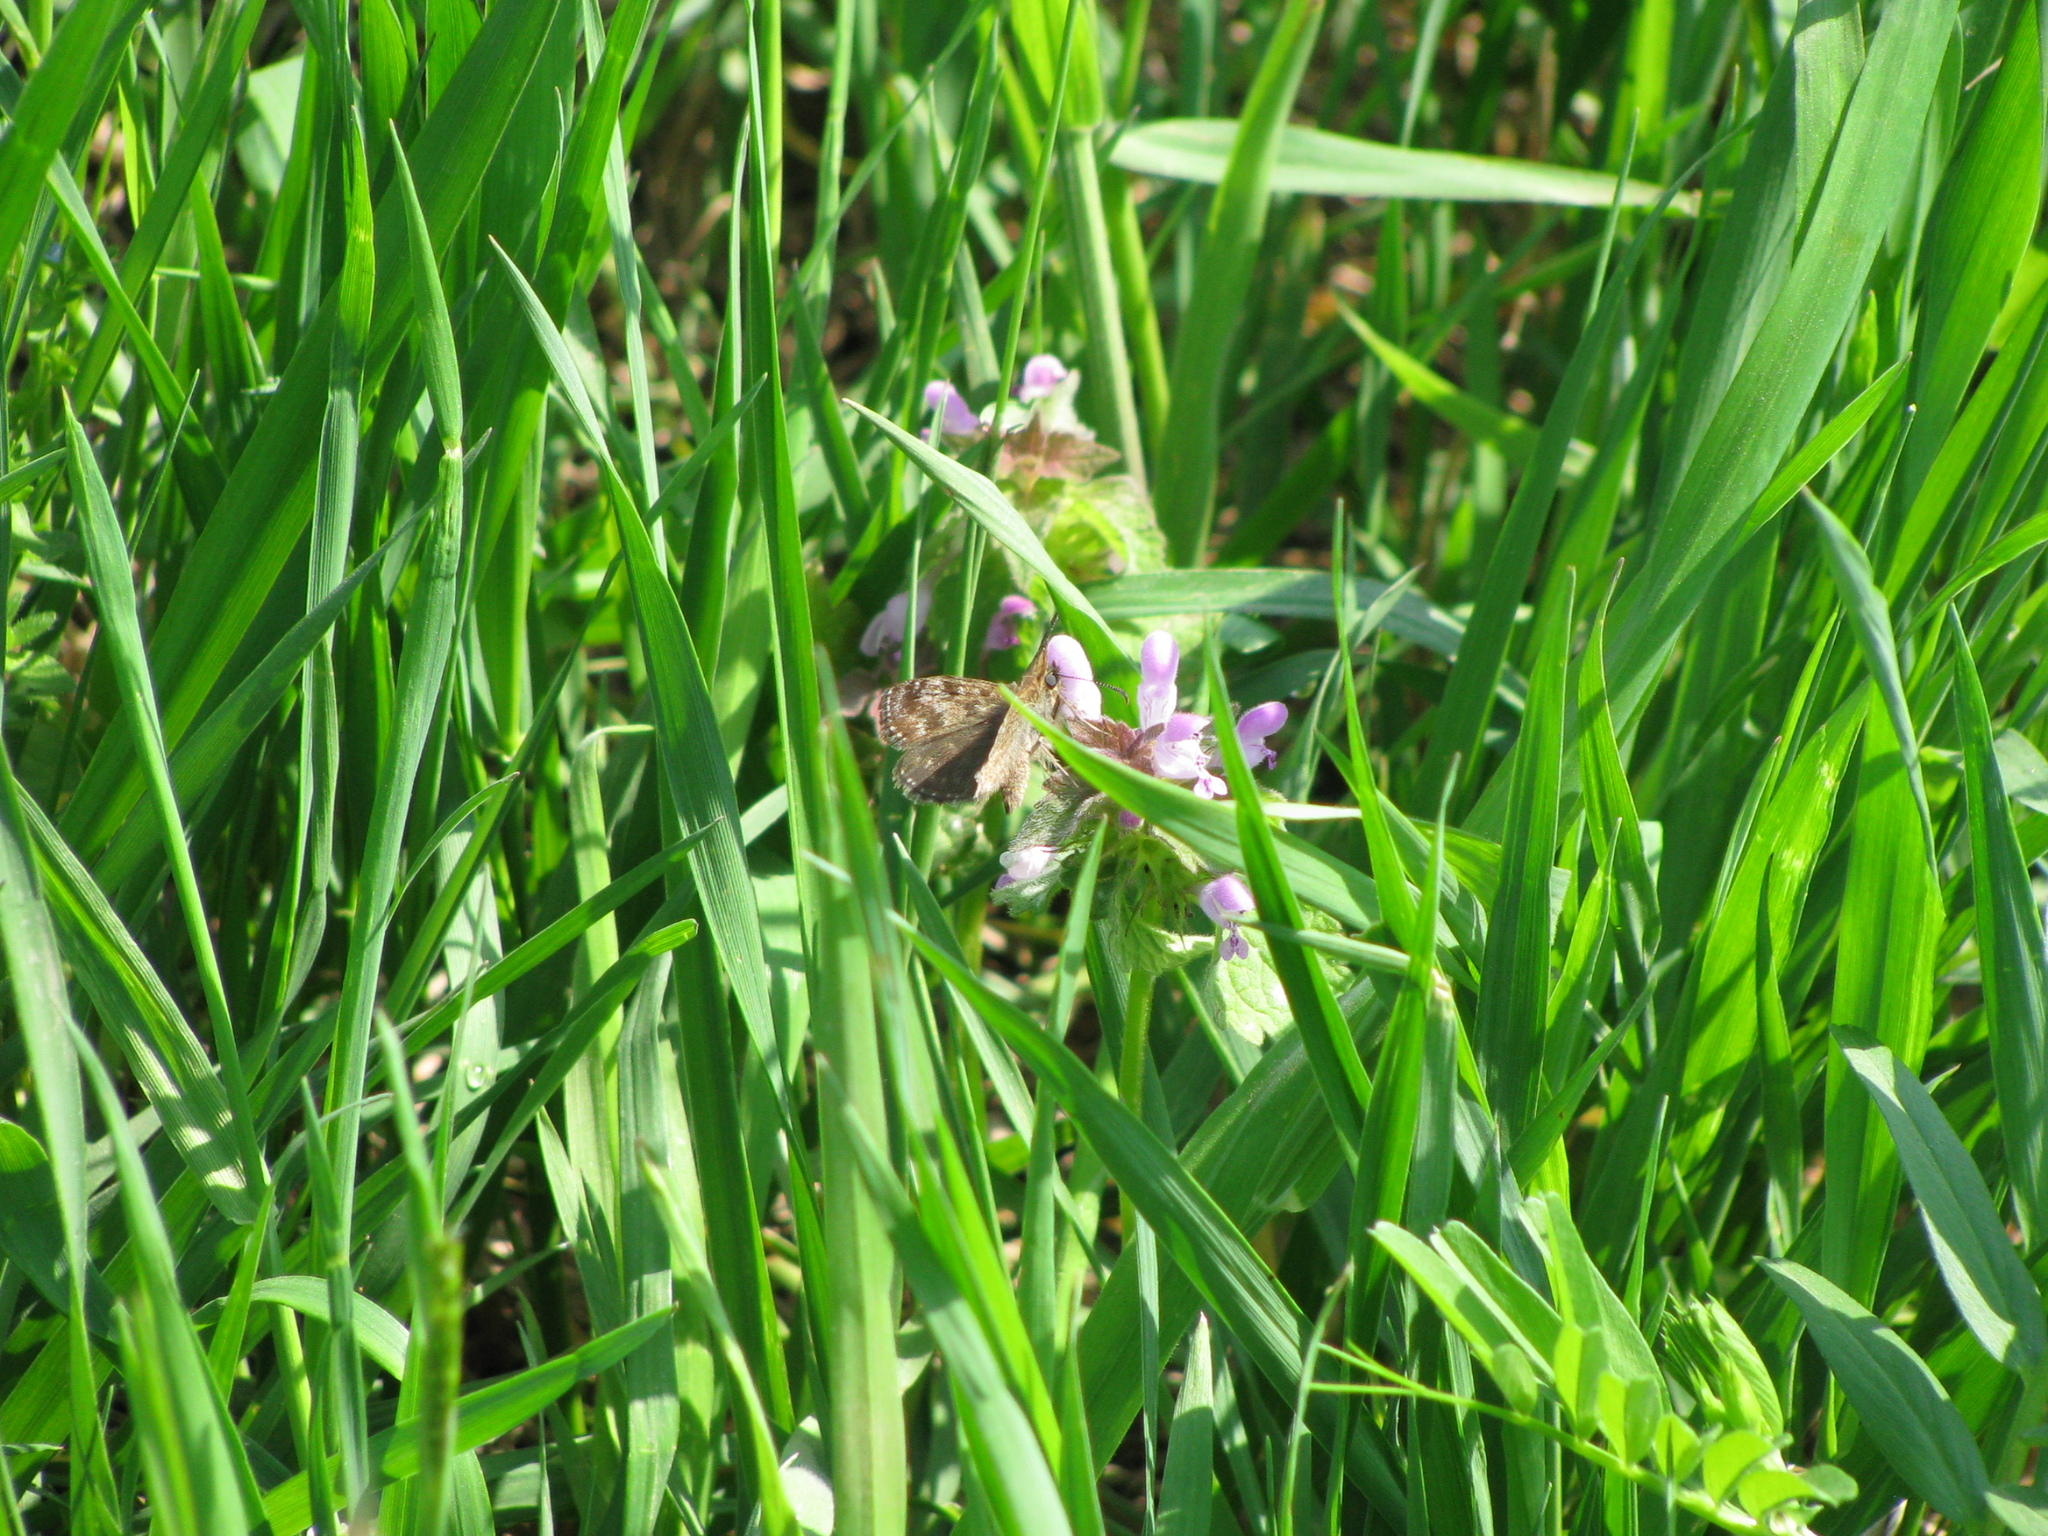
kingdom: Animalia
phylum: Arthropoda
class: Insecta
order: Lepidoptera
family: Hesperiidae
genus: Erynnis
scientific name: Erynnis tages
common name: Dingy skipper
